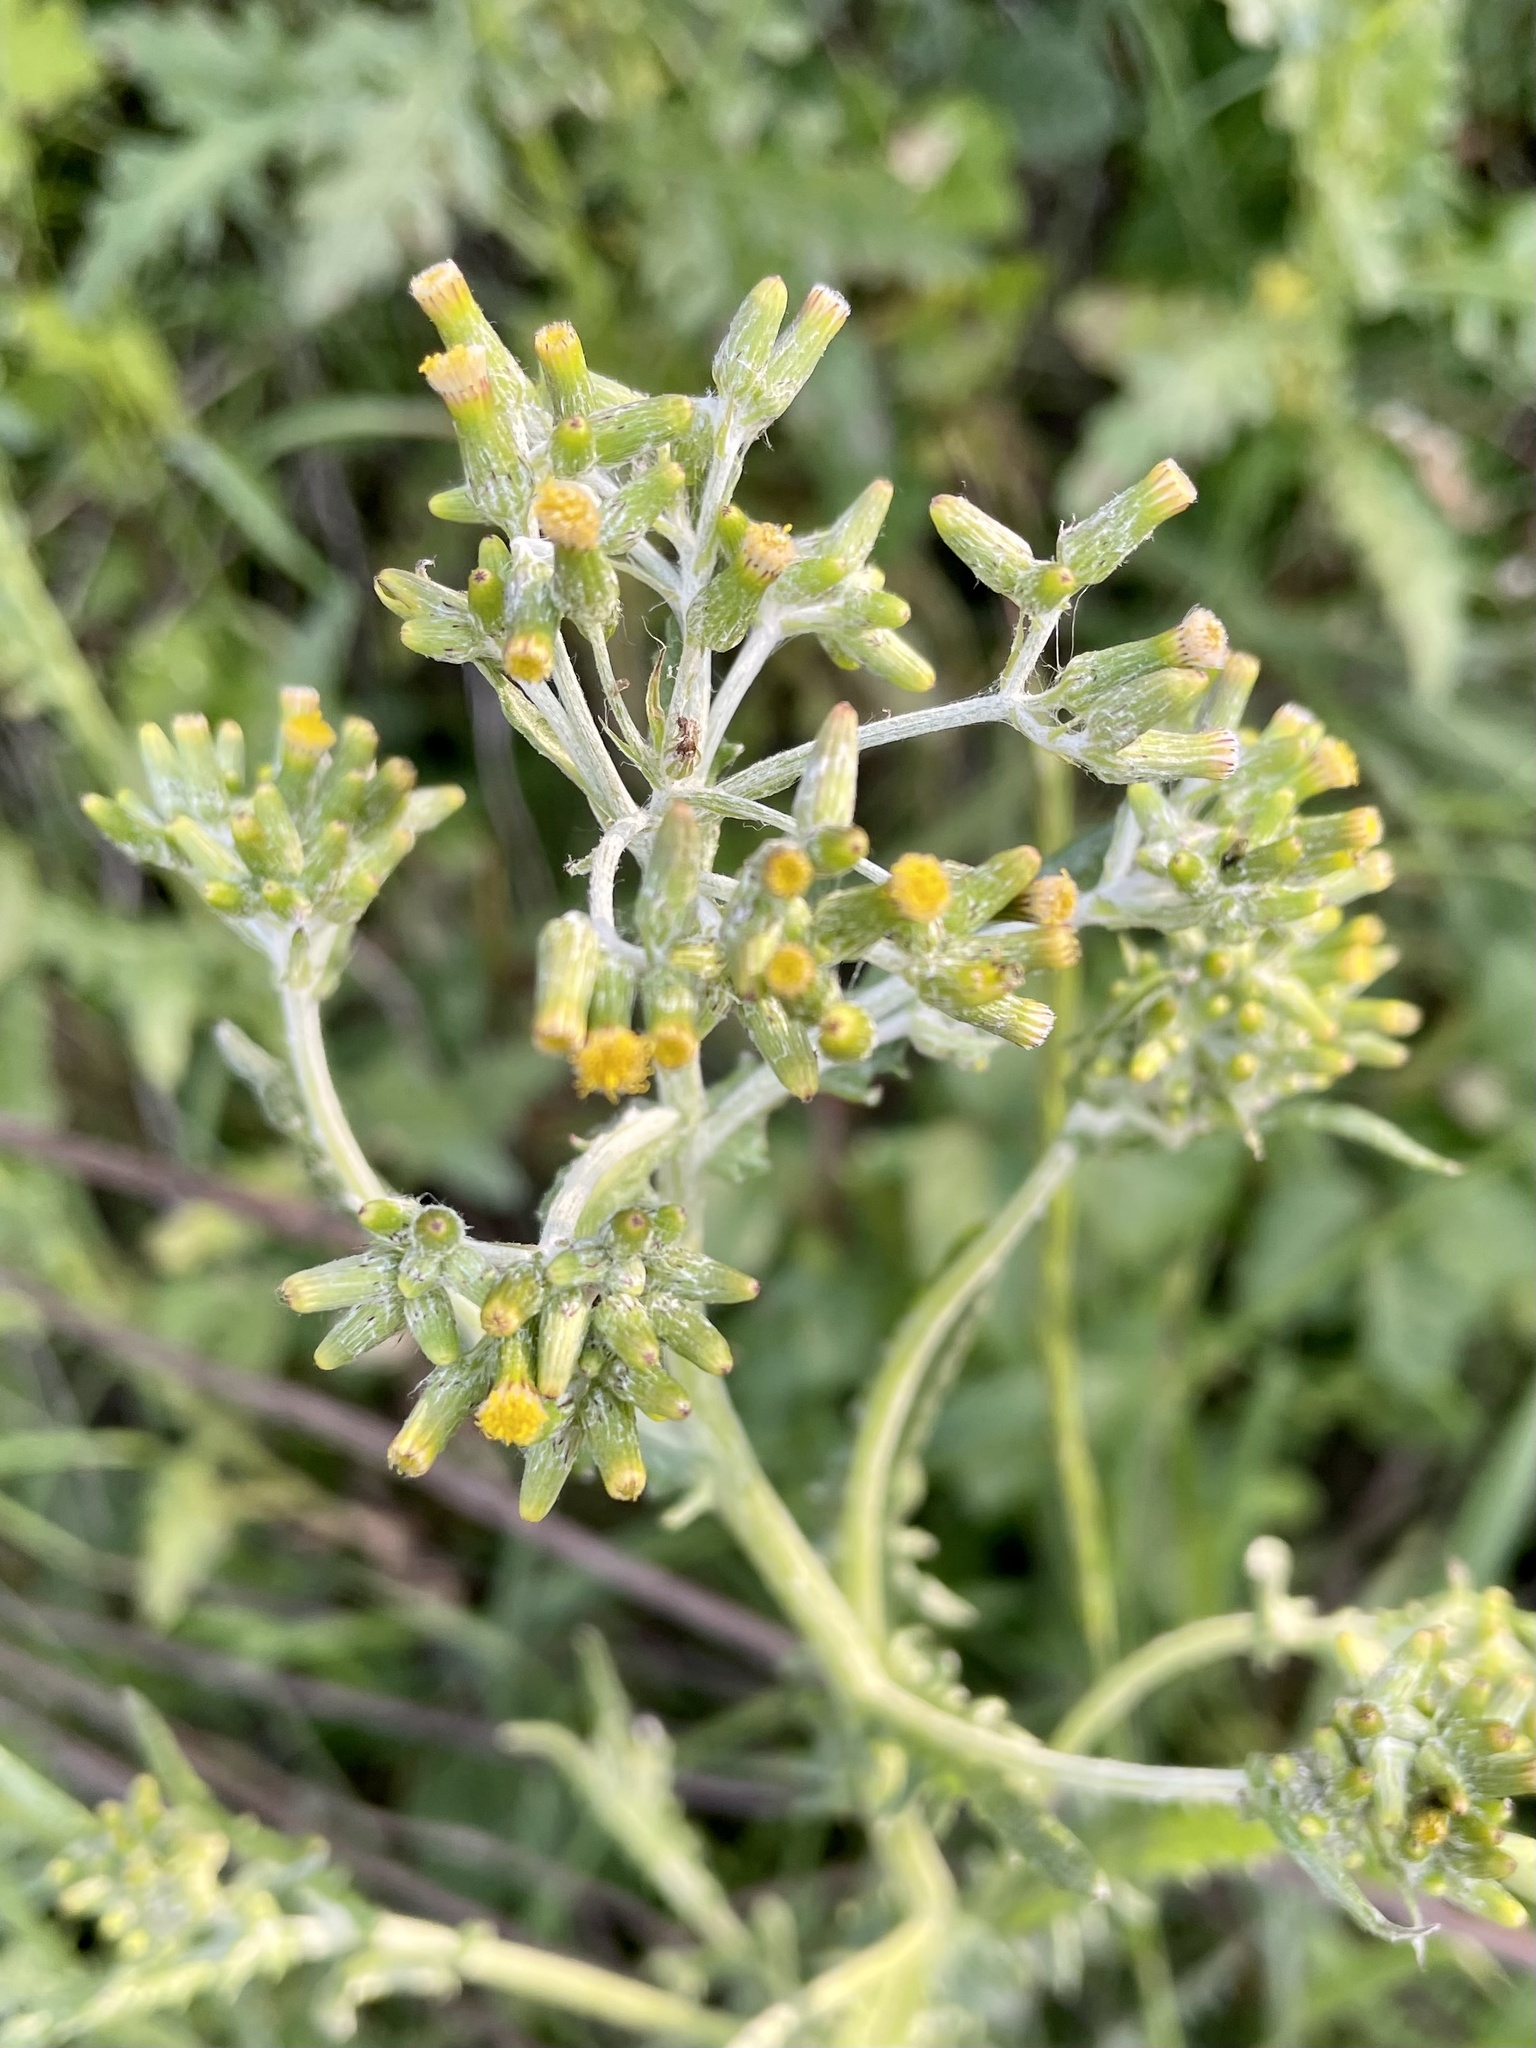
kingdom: Plantae
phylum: Tracheophyta
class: Magnoliopsida
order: Asterales
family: Asteraceae
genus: Senecio
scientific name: Senecio glomeratus
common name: Cutleaf burnweed
